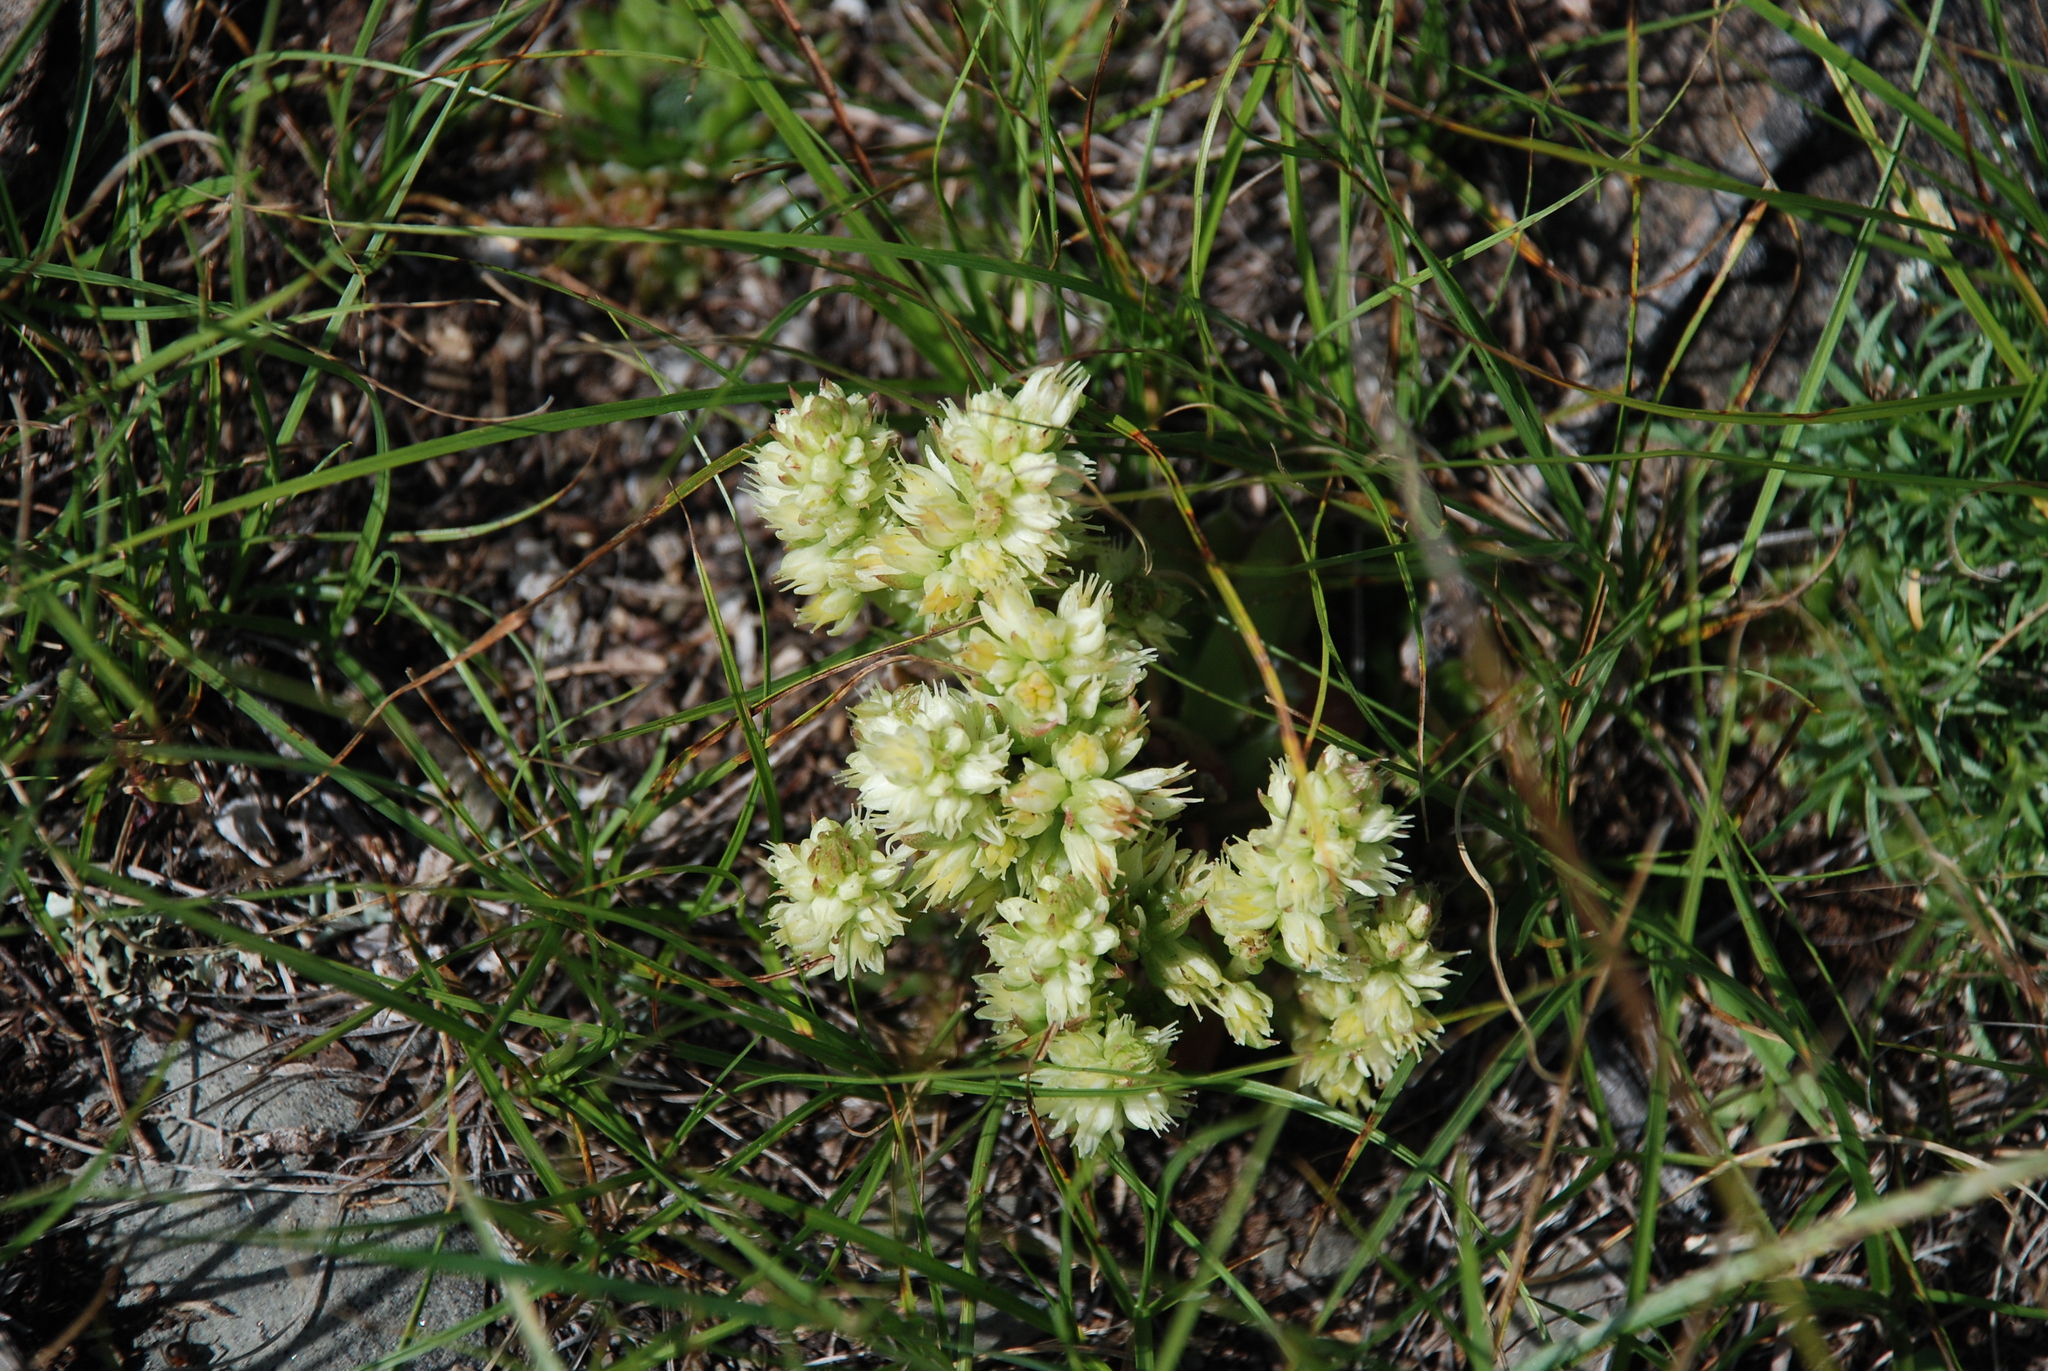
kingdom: Plantae
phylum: Tracheophyta
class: Magnoliopsida
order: Saxifragales
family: Crassulaceae
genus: Orostachys
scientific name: Orostachys spinosa
